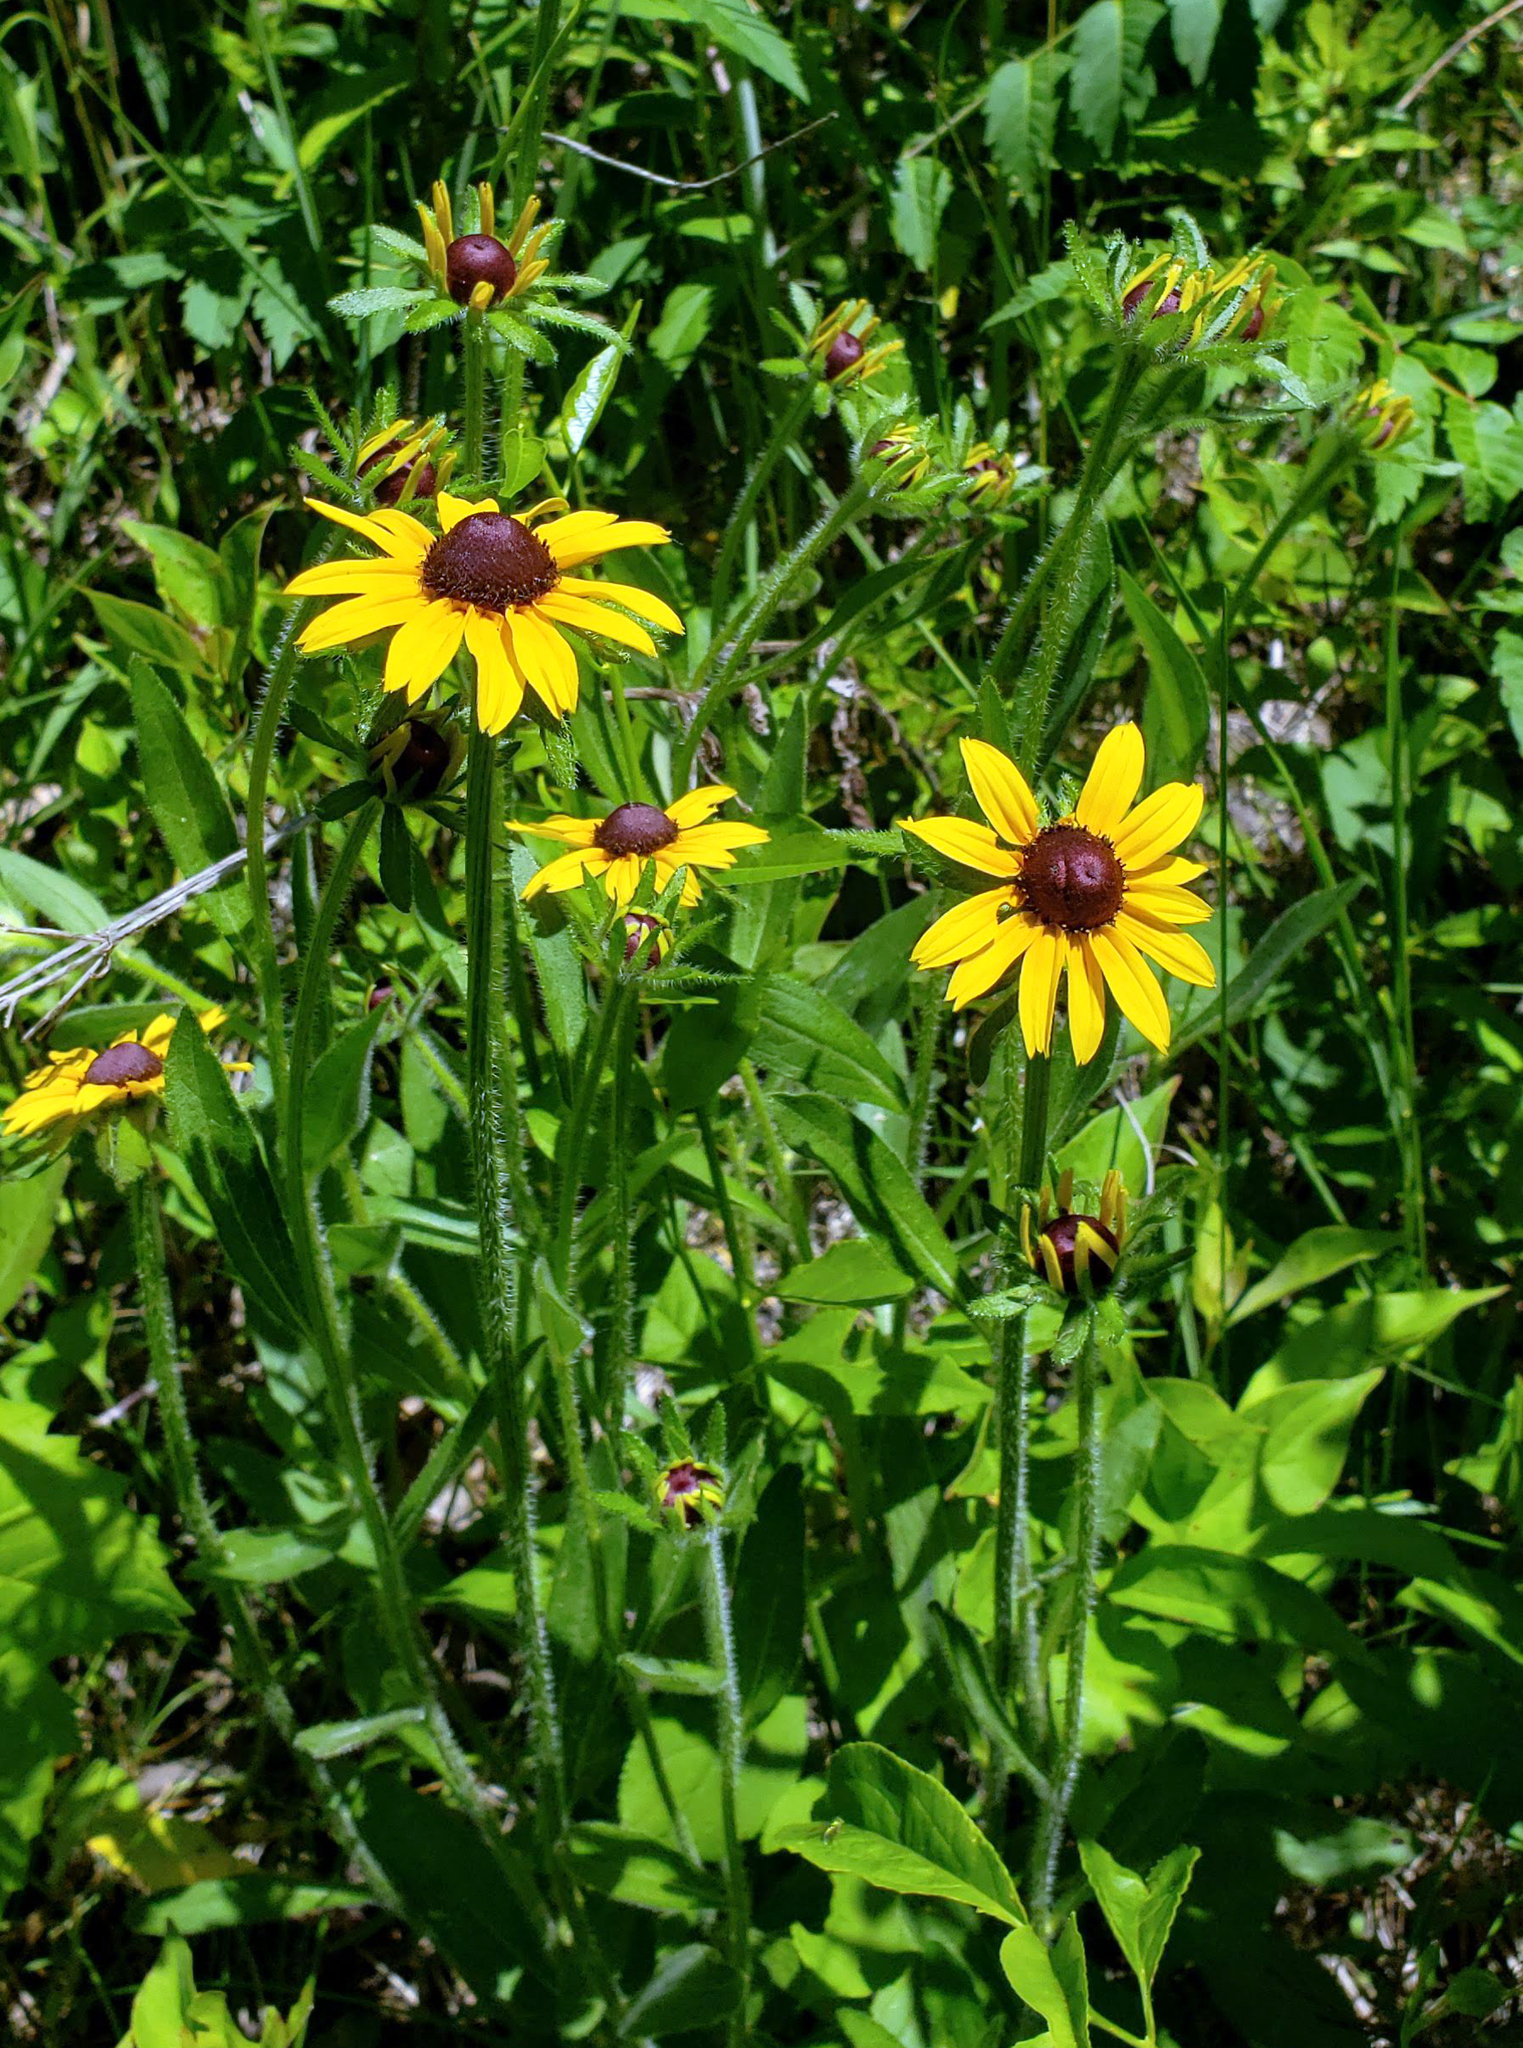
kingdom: Plantae
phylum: Tracheophyta
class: Magnoliopsida
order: Asterales
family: Asteraceae
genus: Rudbeckia
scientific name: Rudbeckia hirta
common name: Black-eyed-susan
